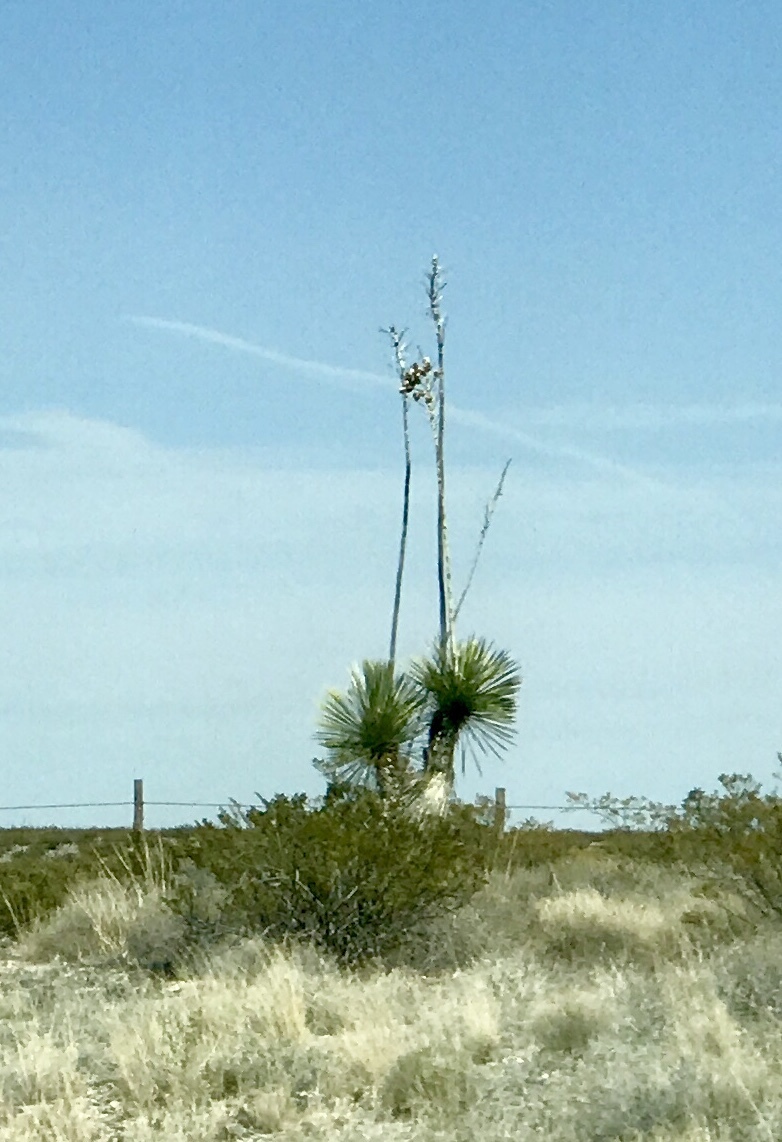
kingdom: Plantae
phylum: Tracheophyta
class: Liliopsida
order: Asparagales
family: Asparagaceae
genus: Yucca
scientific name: Yucca elata
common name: Palmella
